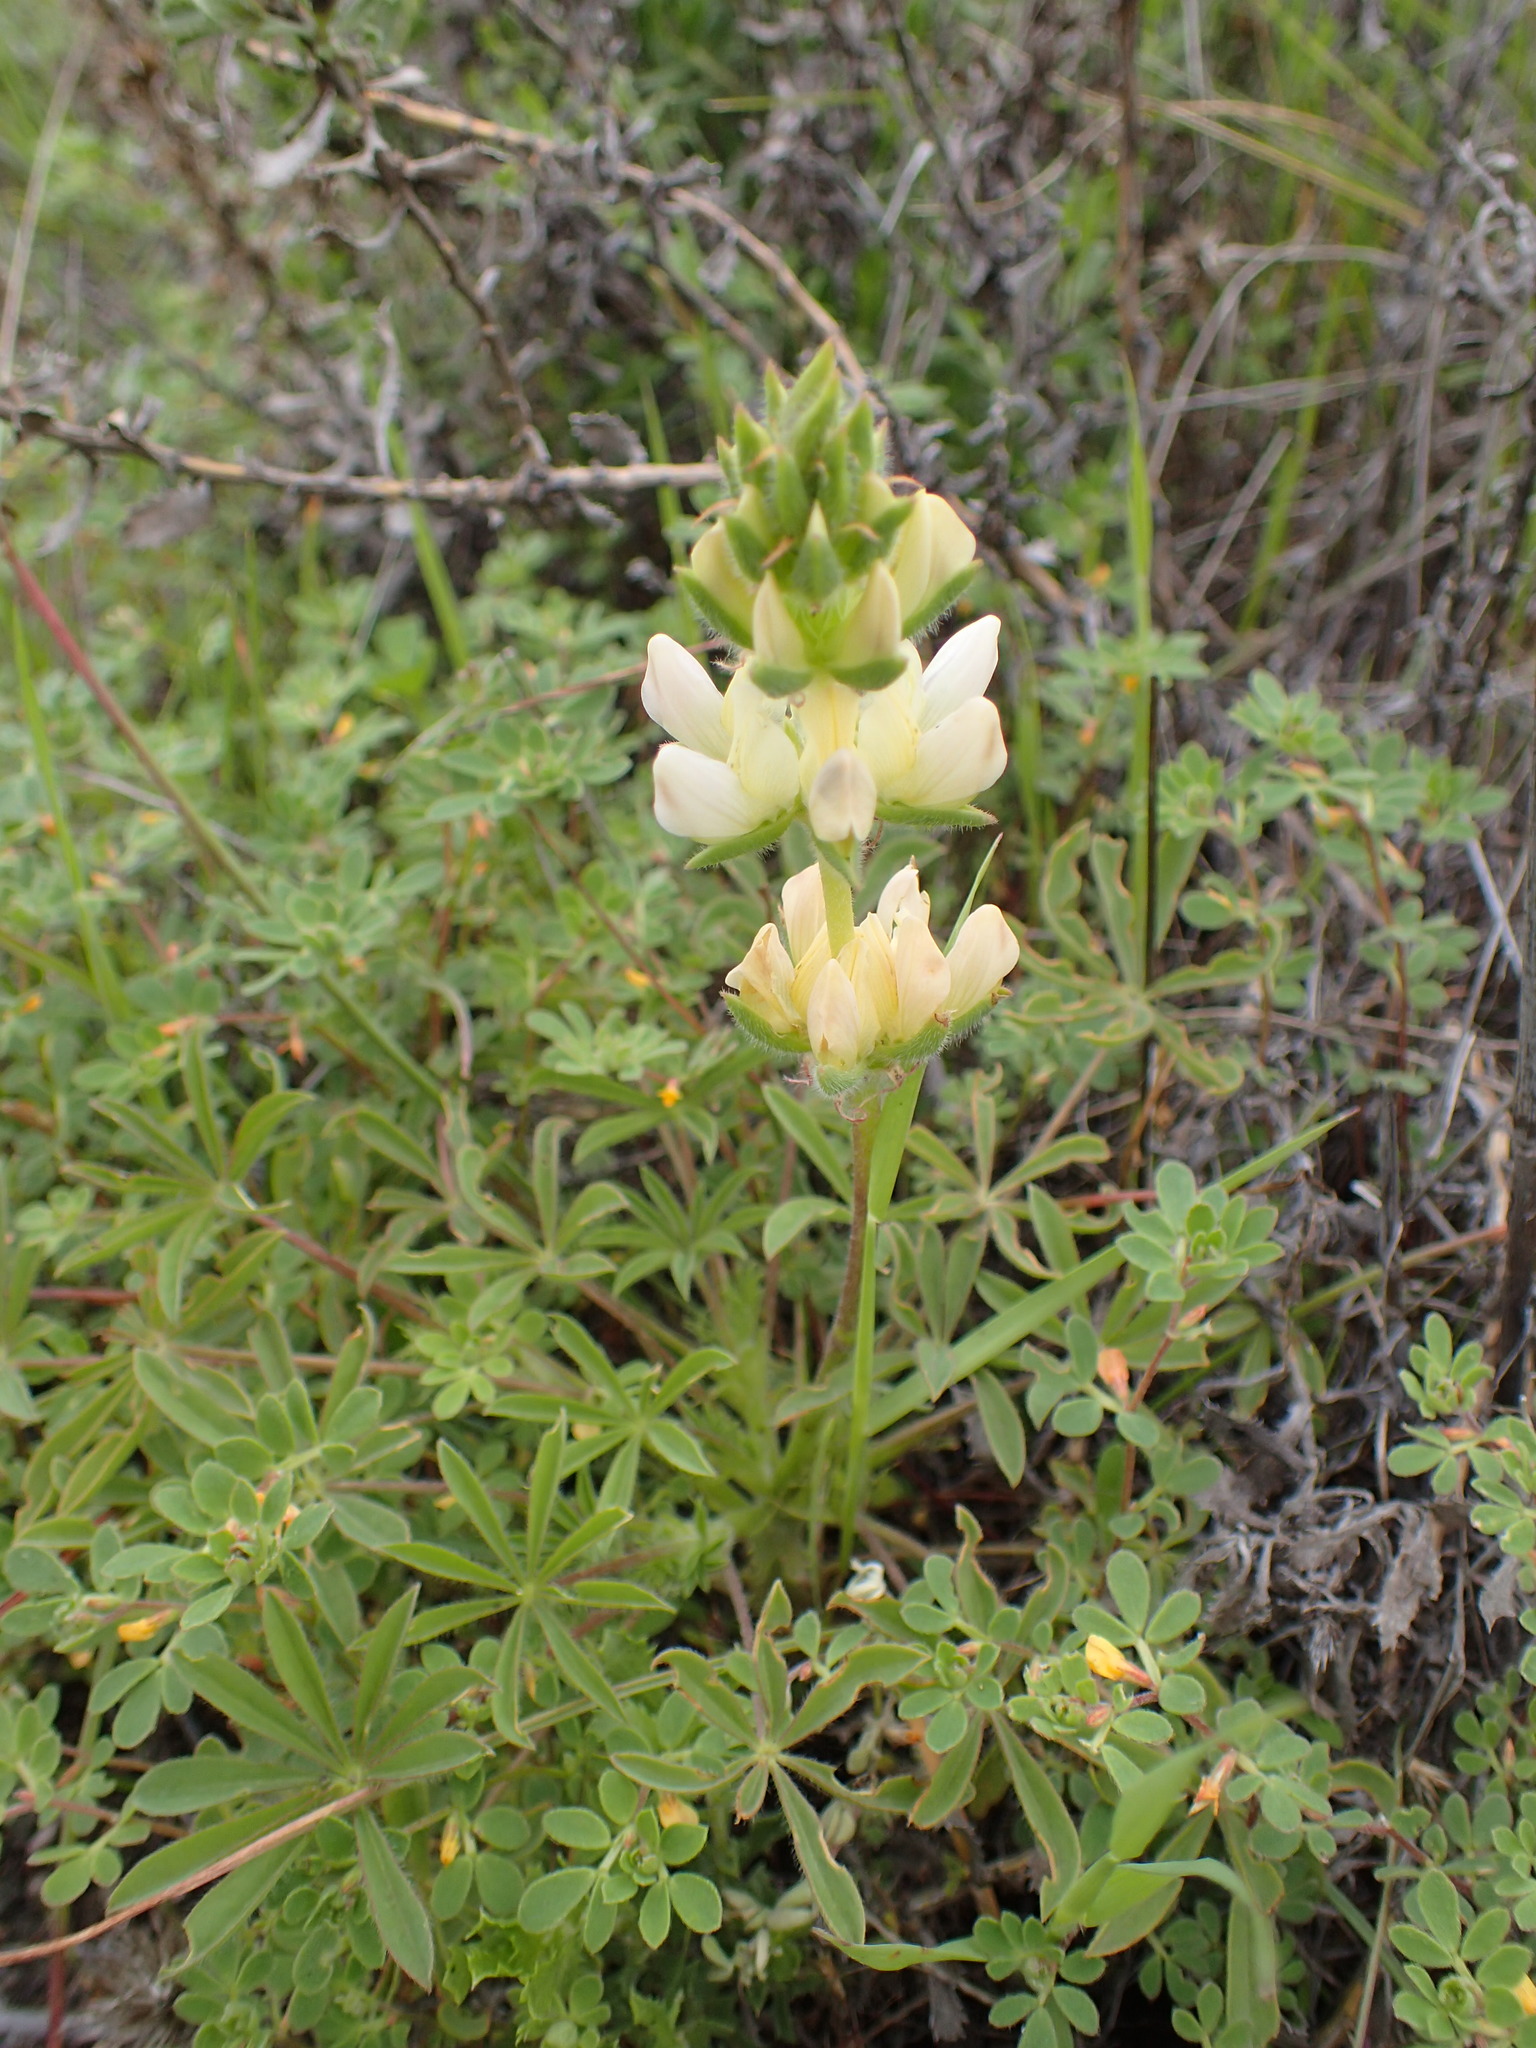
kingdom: Plantae
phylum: Tracheophyta
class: Magnoliopsida
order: Fabales
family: Fabaceae
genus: Lupinus
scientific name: Lupinus microcarpus
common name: Chick lupine
